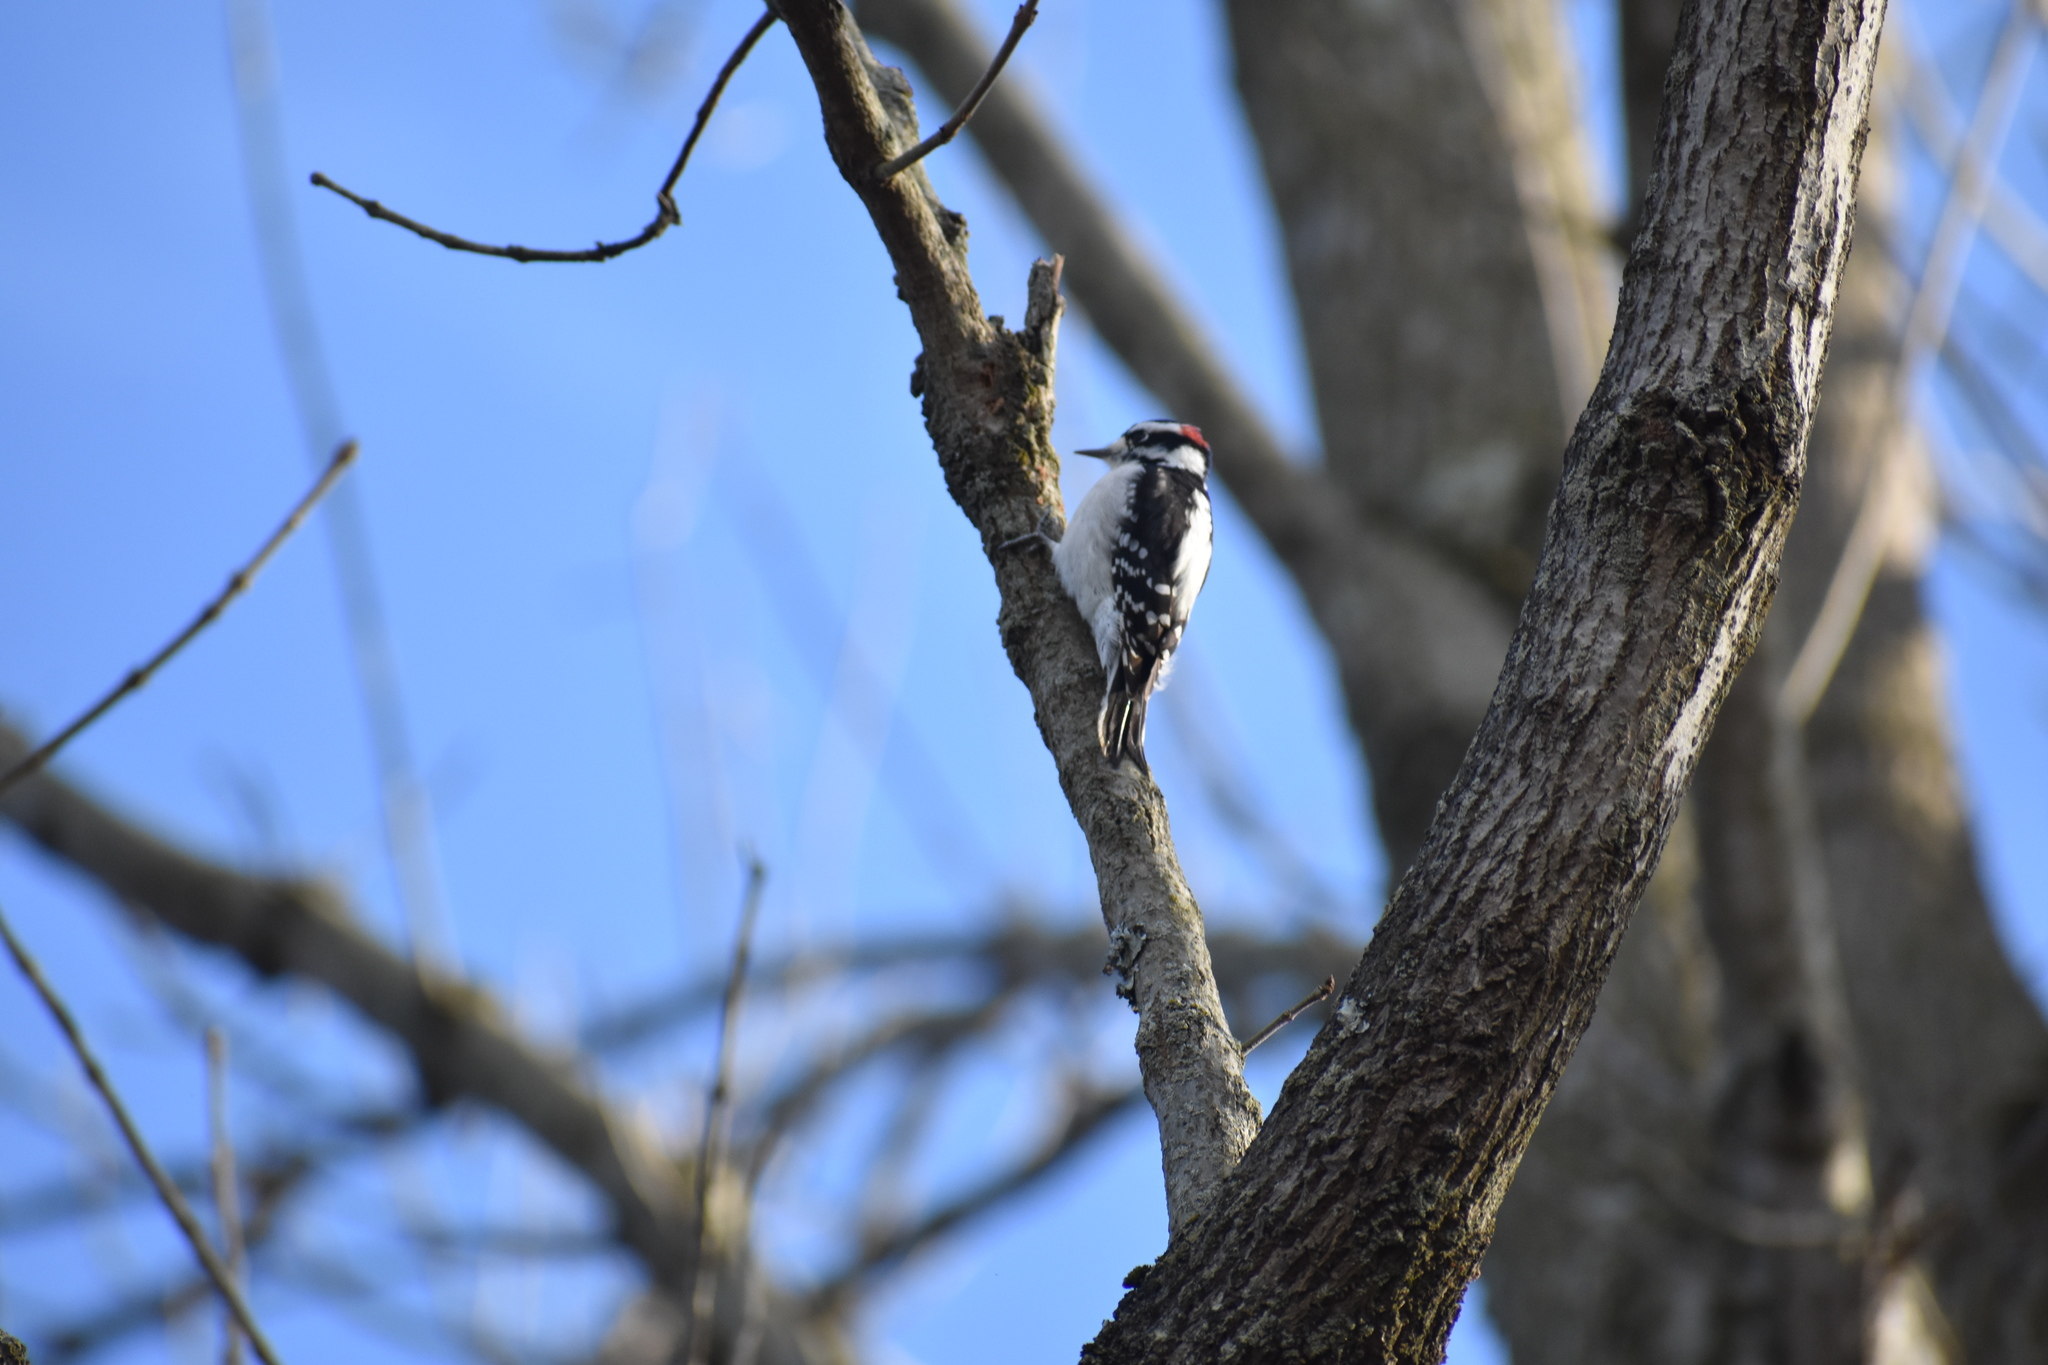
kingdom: Animalia
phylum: Chordata
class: Aves
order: Piciformes
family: Picidae
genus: Dryobates
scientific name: Dryobates pubescens
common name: Downy woodpecker
